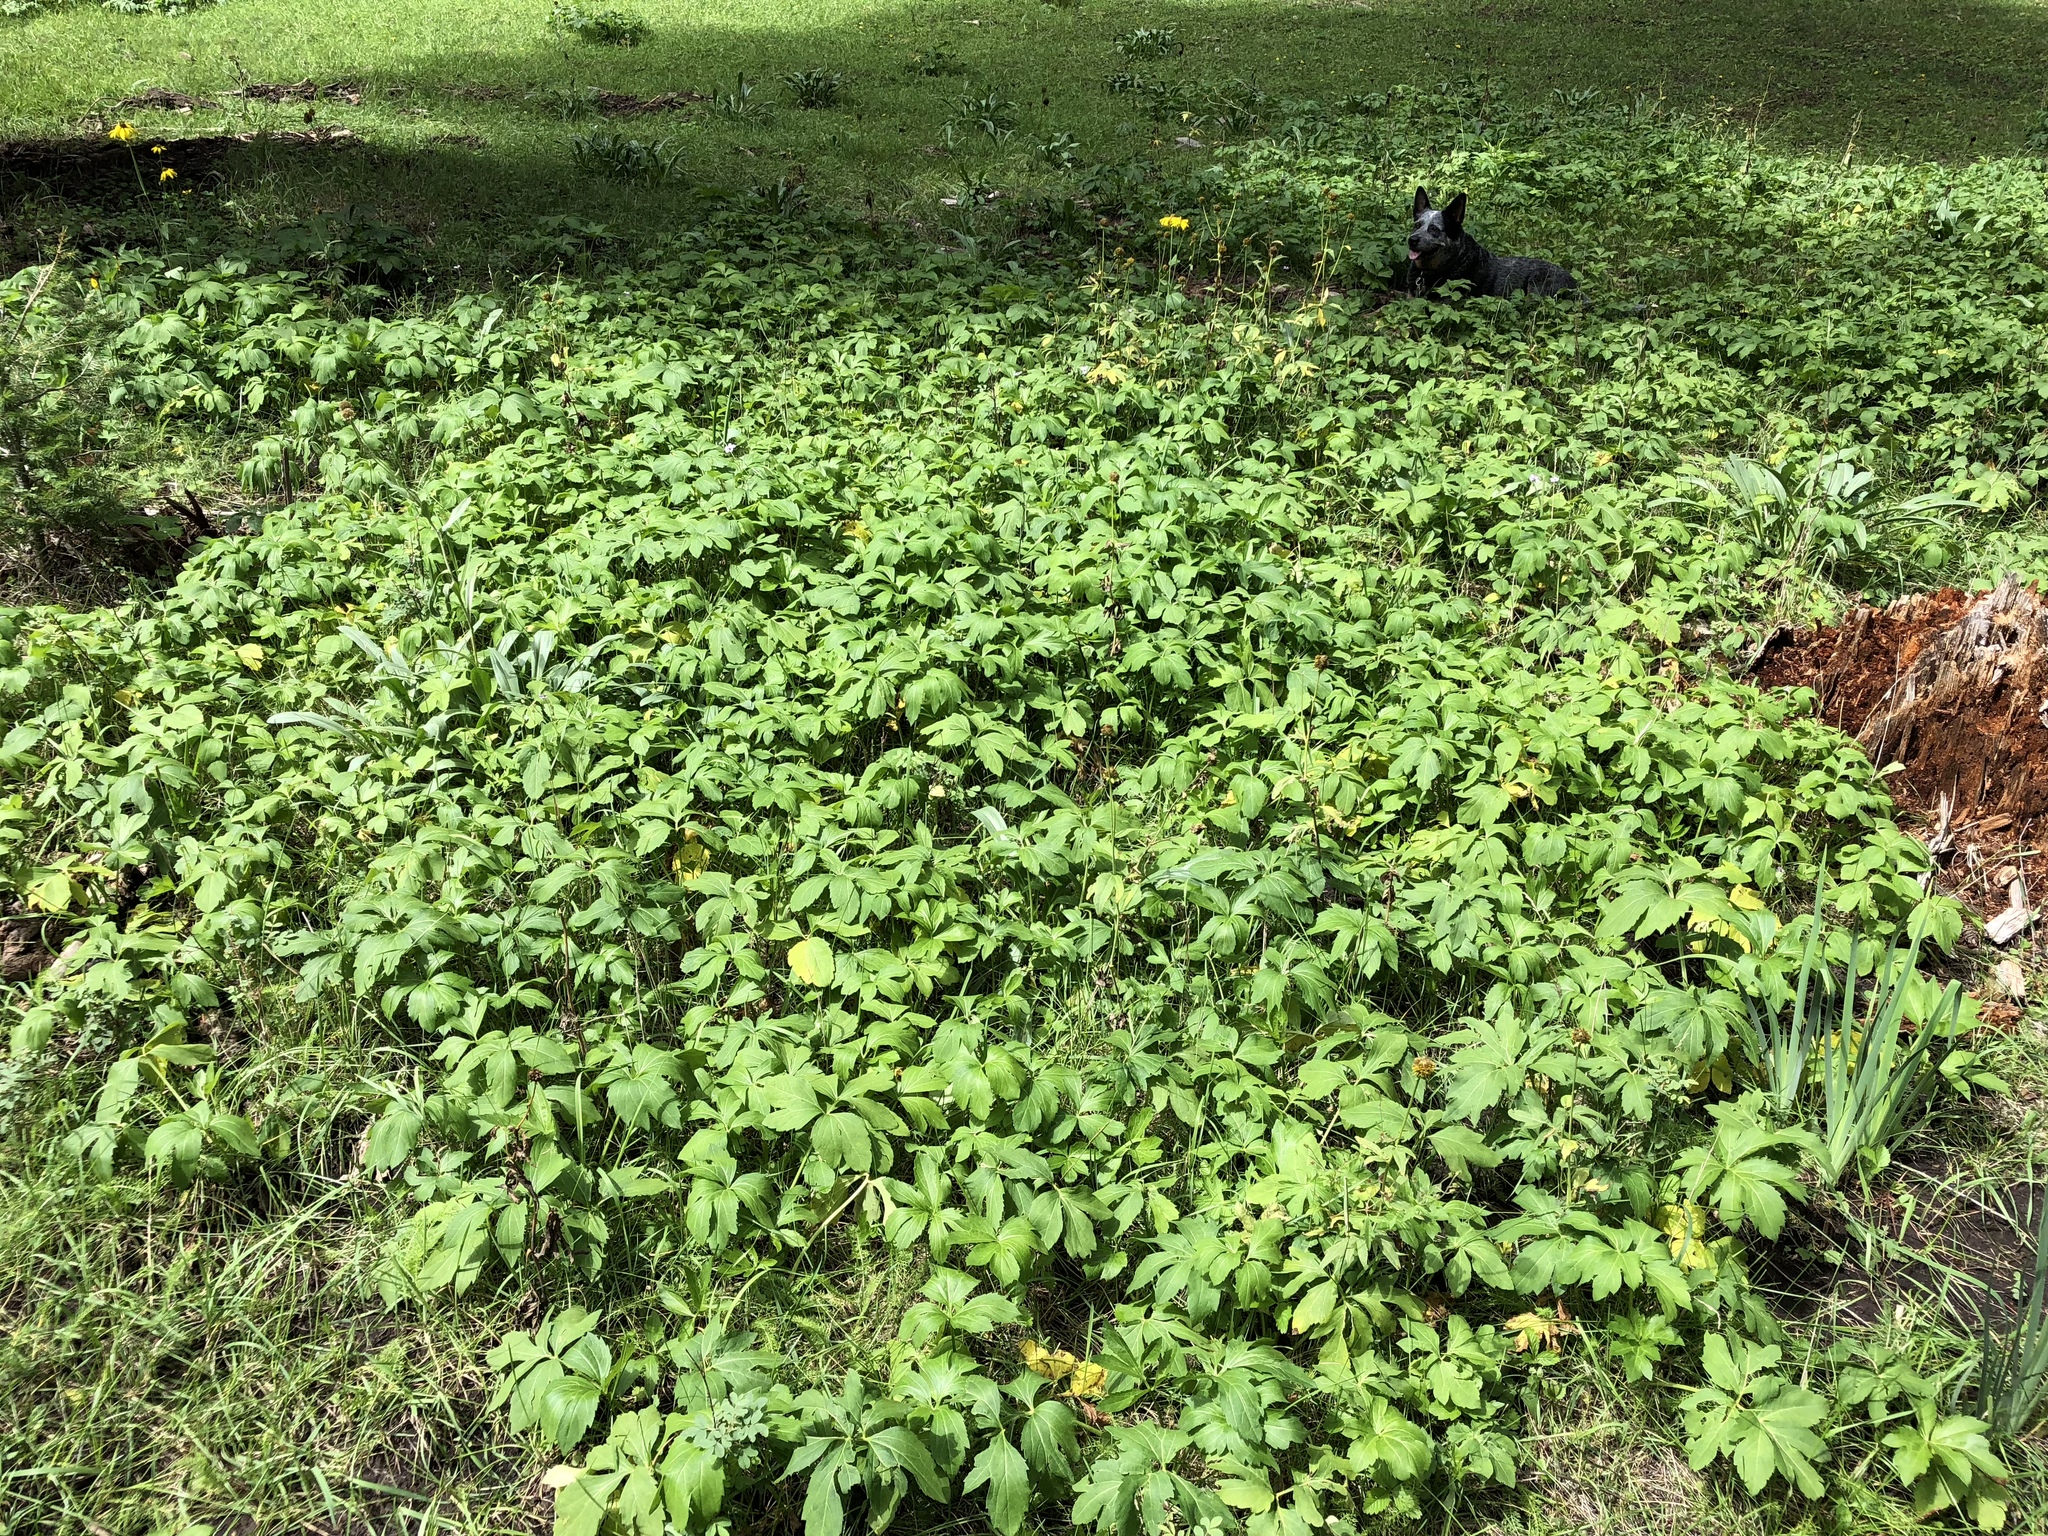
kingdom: Plantae
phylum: Tracheophyta
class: Magnoliopsida
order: Asterales
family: Asteraceae
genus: Rudbeckia
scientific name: Rudbeckia laciniata
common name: Coneflower
